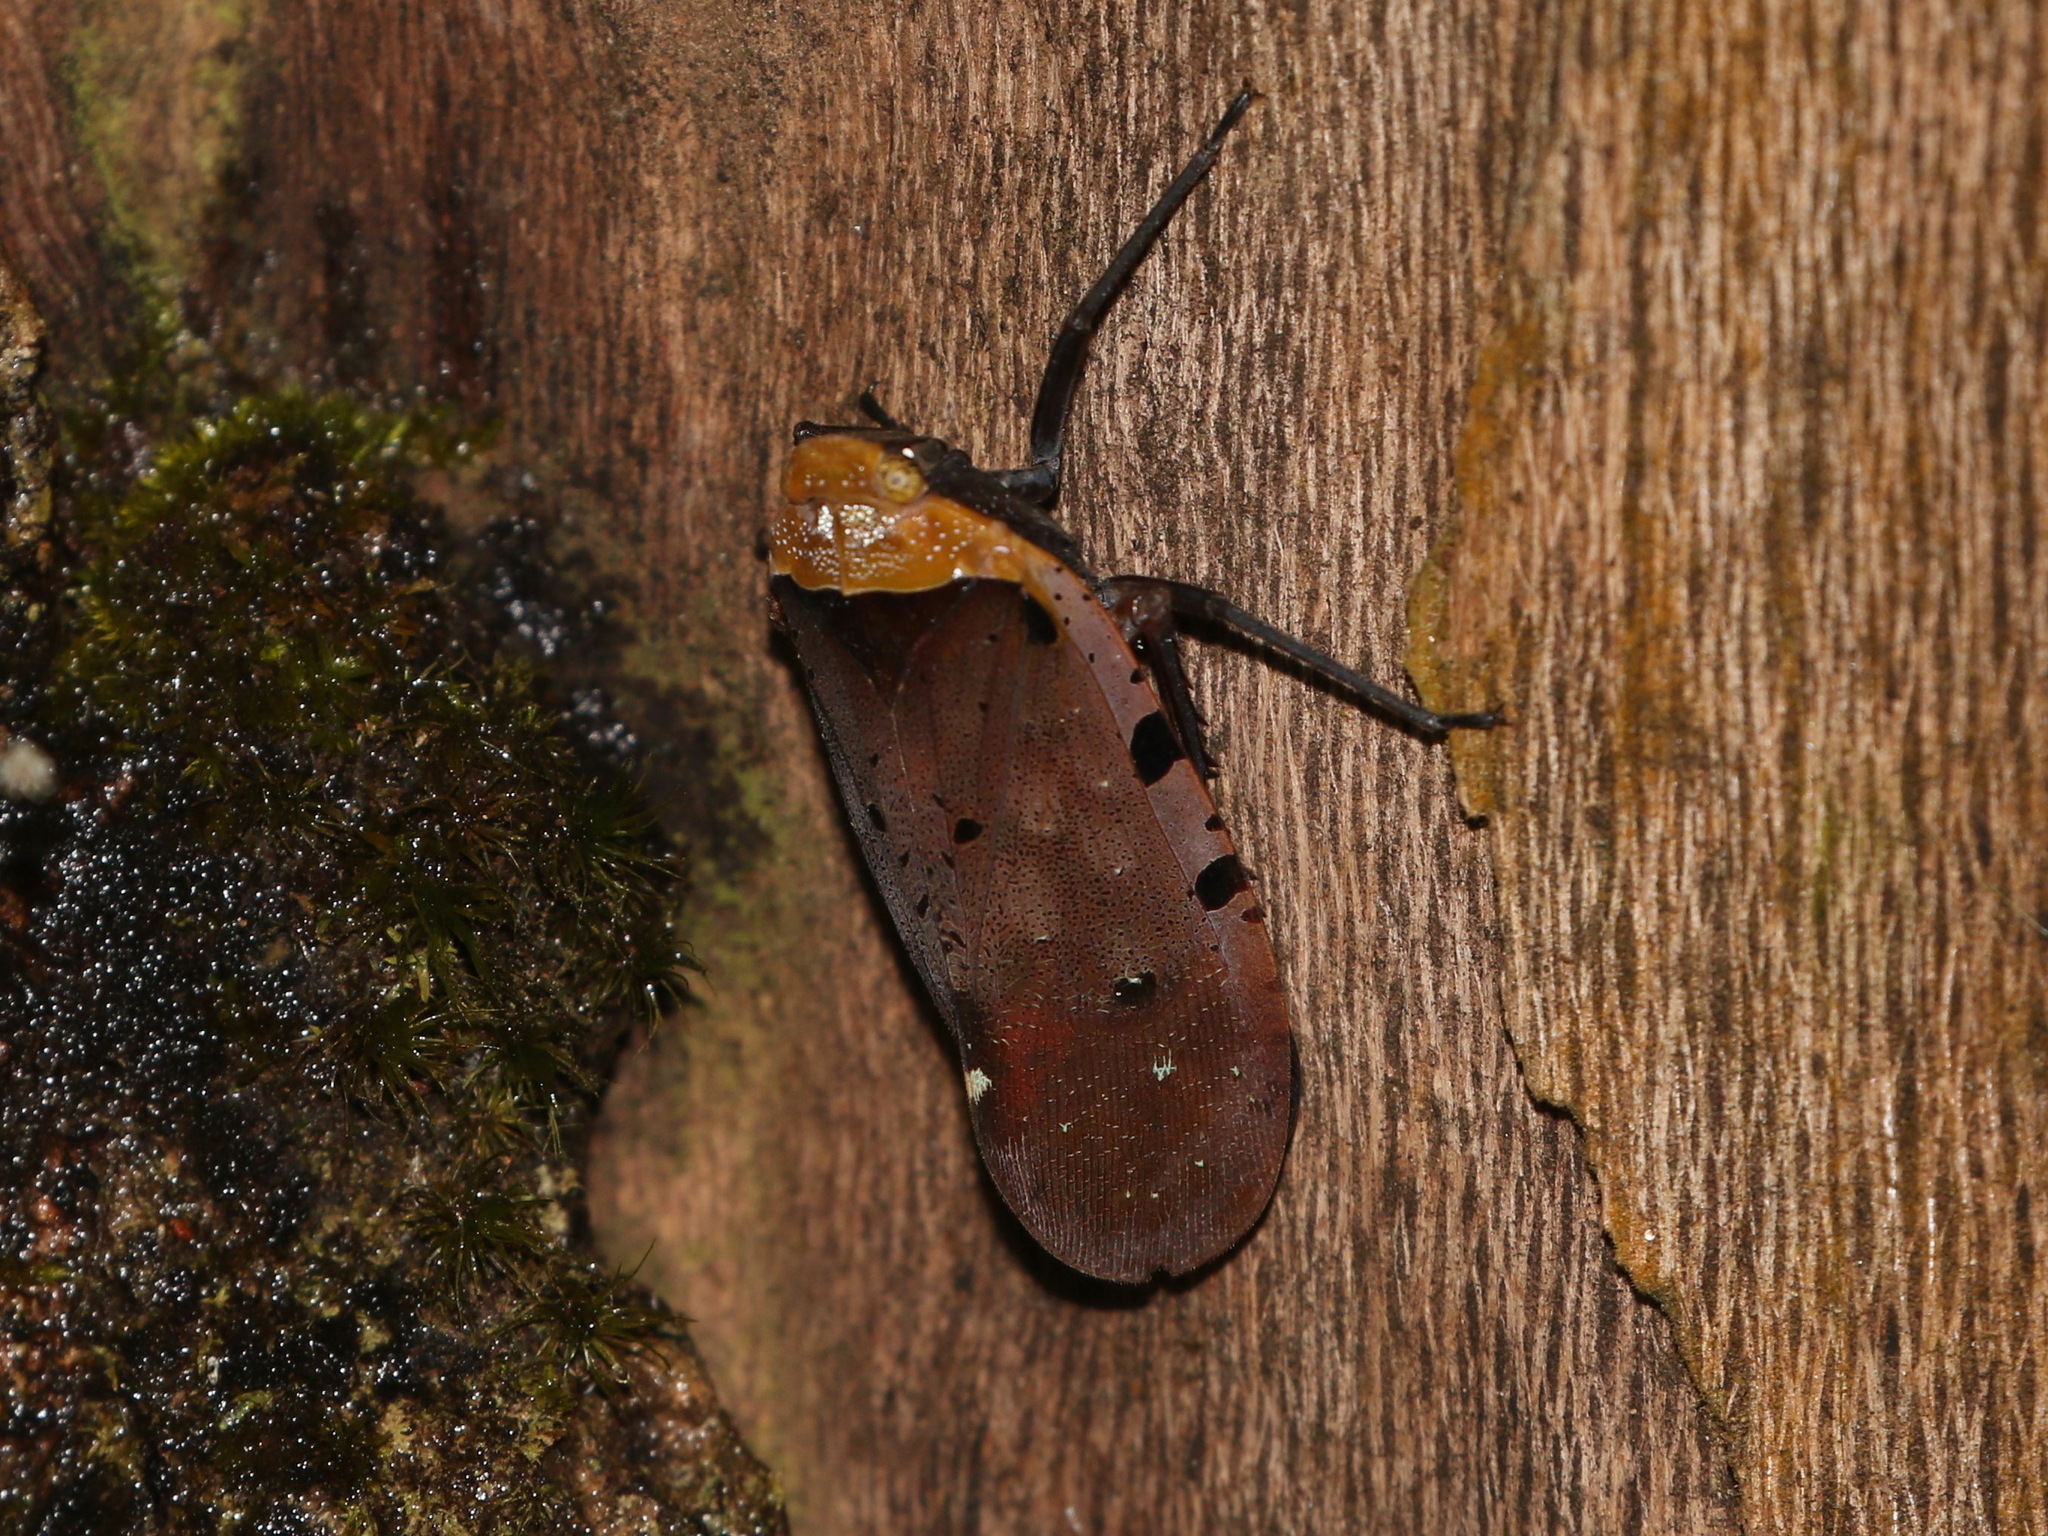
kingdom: Animalia
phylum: Arthropoda
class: Insecta
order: Hemiptera
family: Fulgoridae
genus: Penthicodes
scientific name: Penthicodes atomaria
